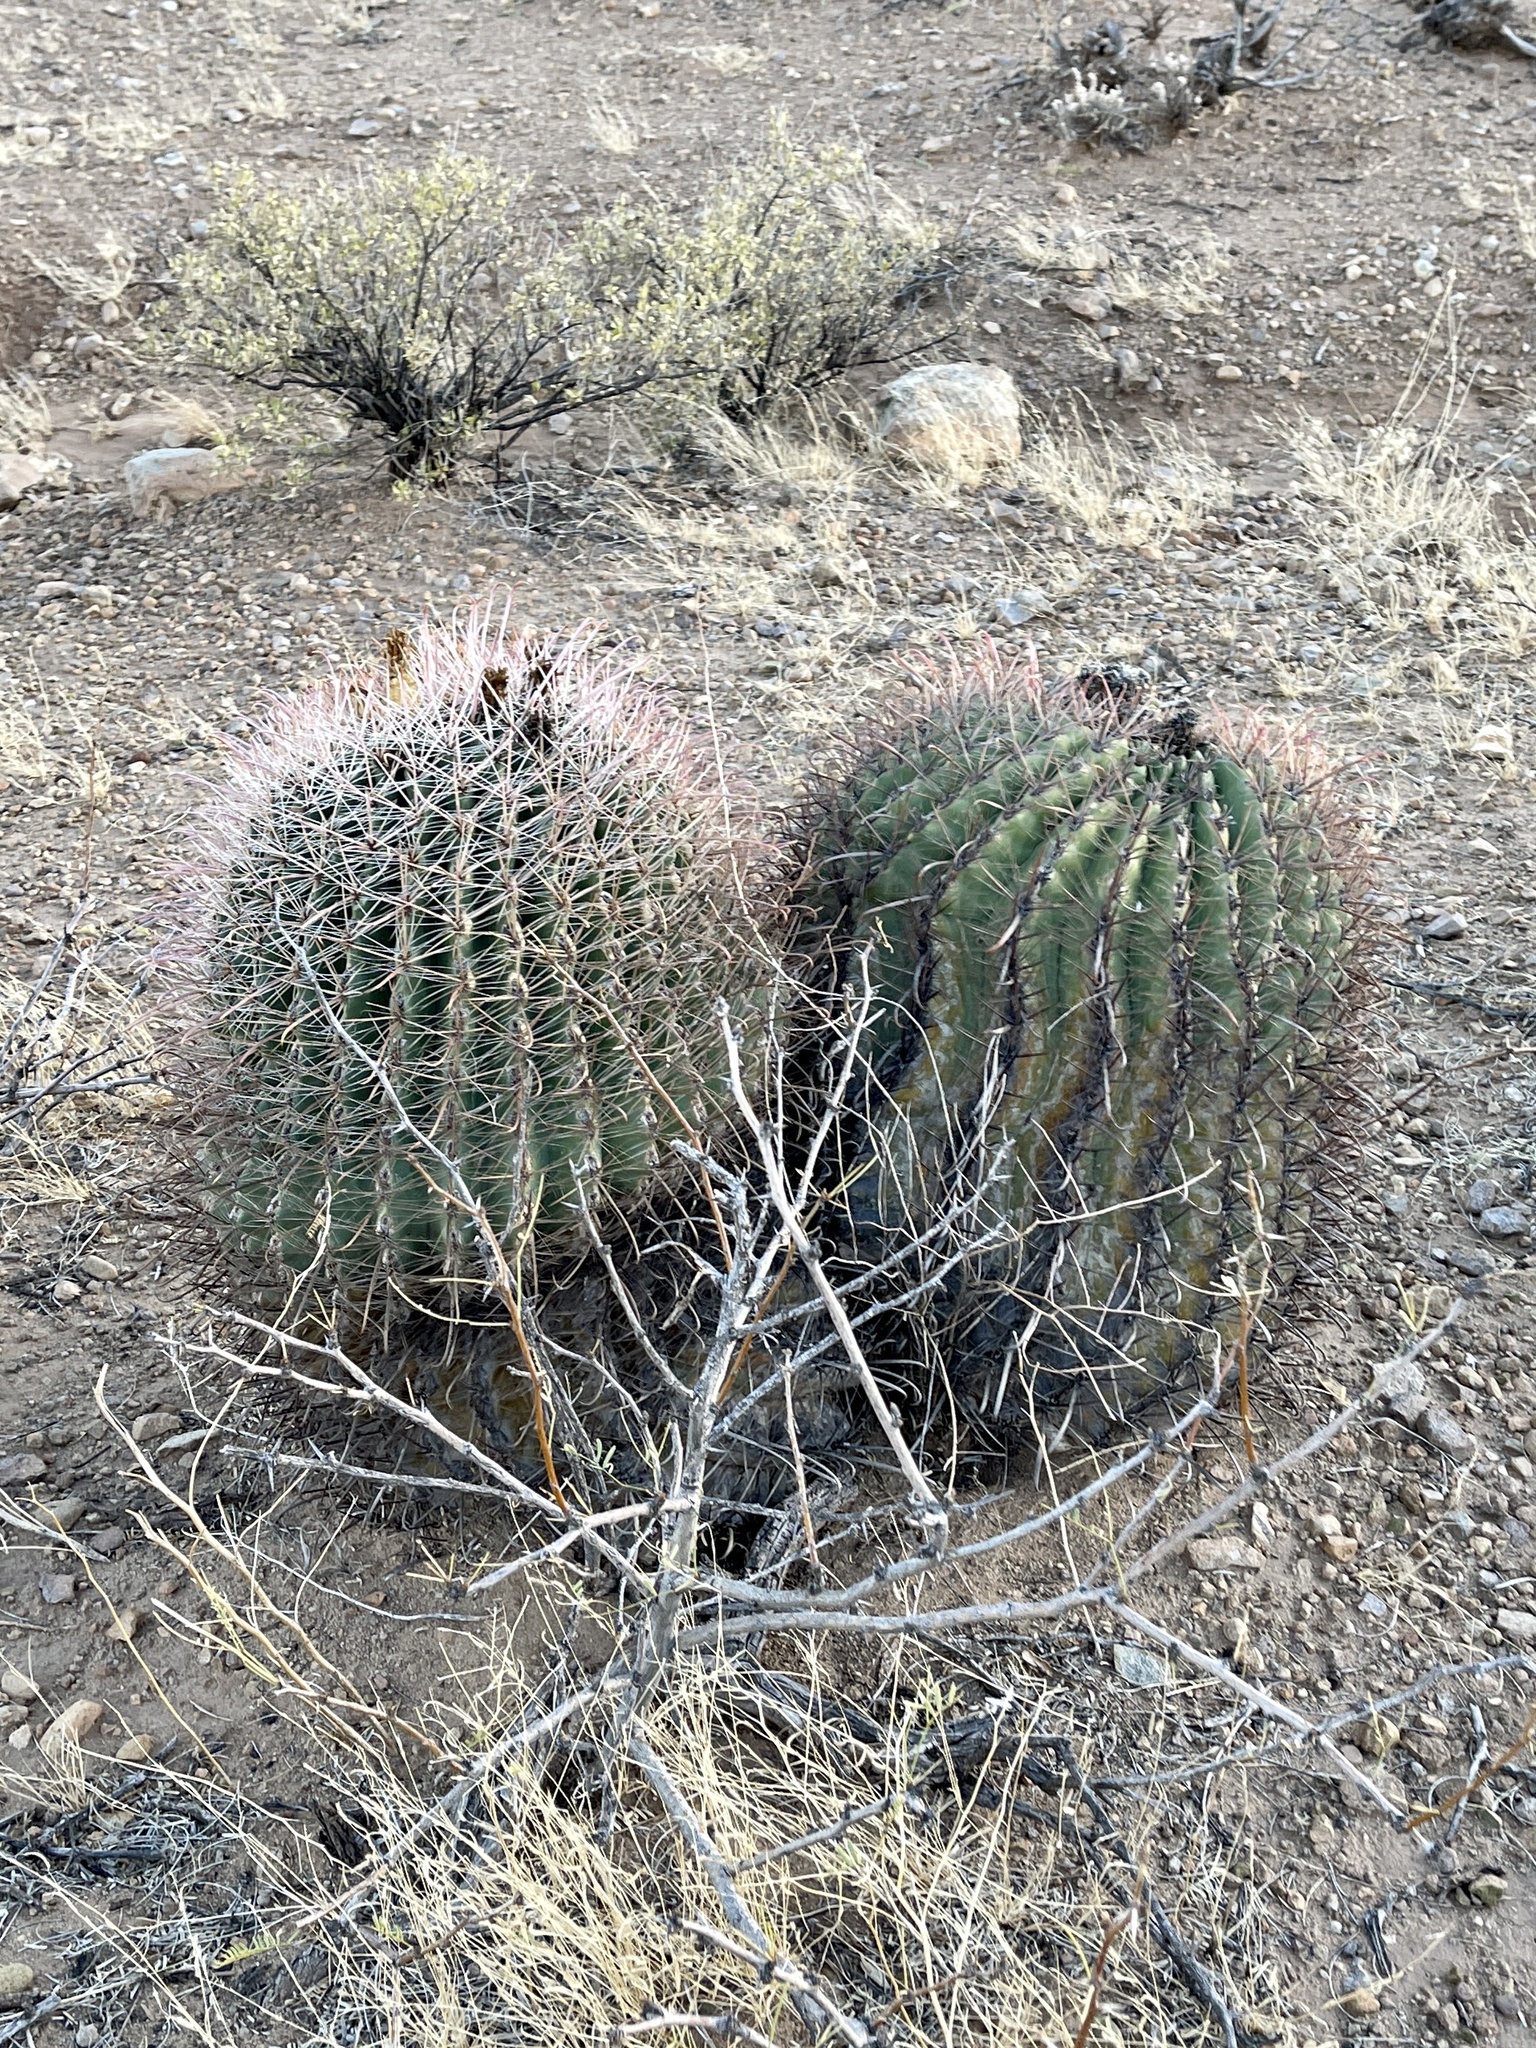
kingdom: Plantae
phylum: Tracheophyta
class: Magnoliopsida
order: Caryophyllales
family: Cactaceae
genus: Ferocactus
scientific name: Ferocactus wislizeni
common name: Candy barrel cactus
